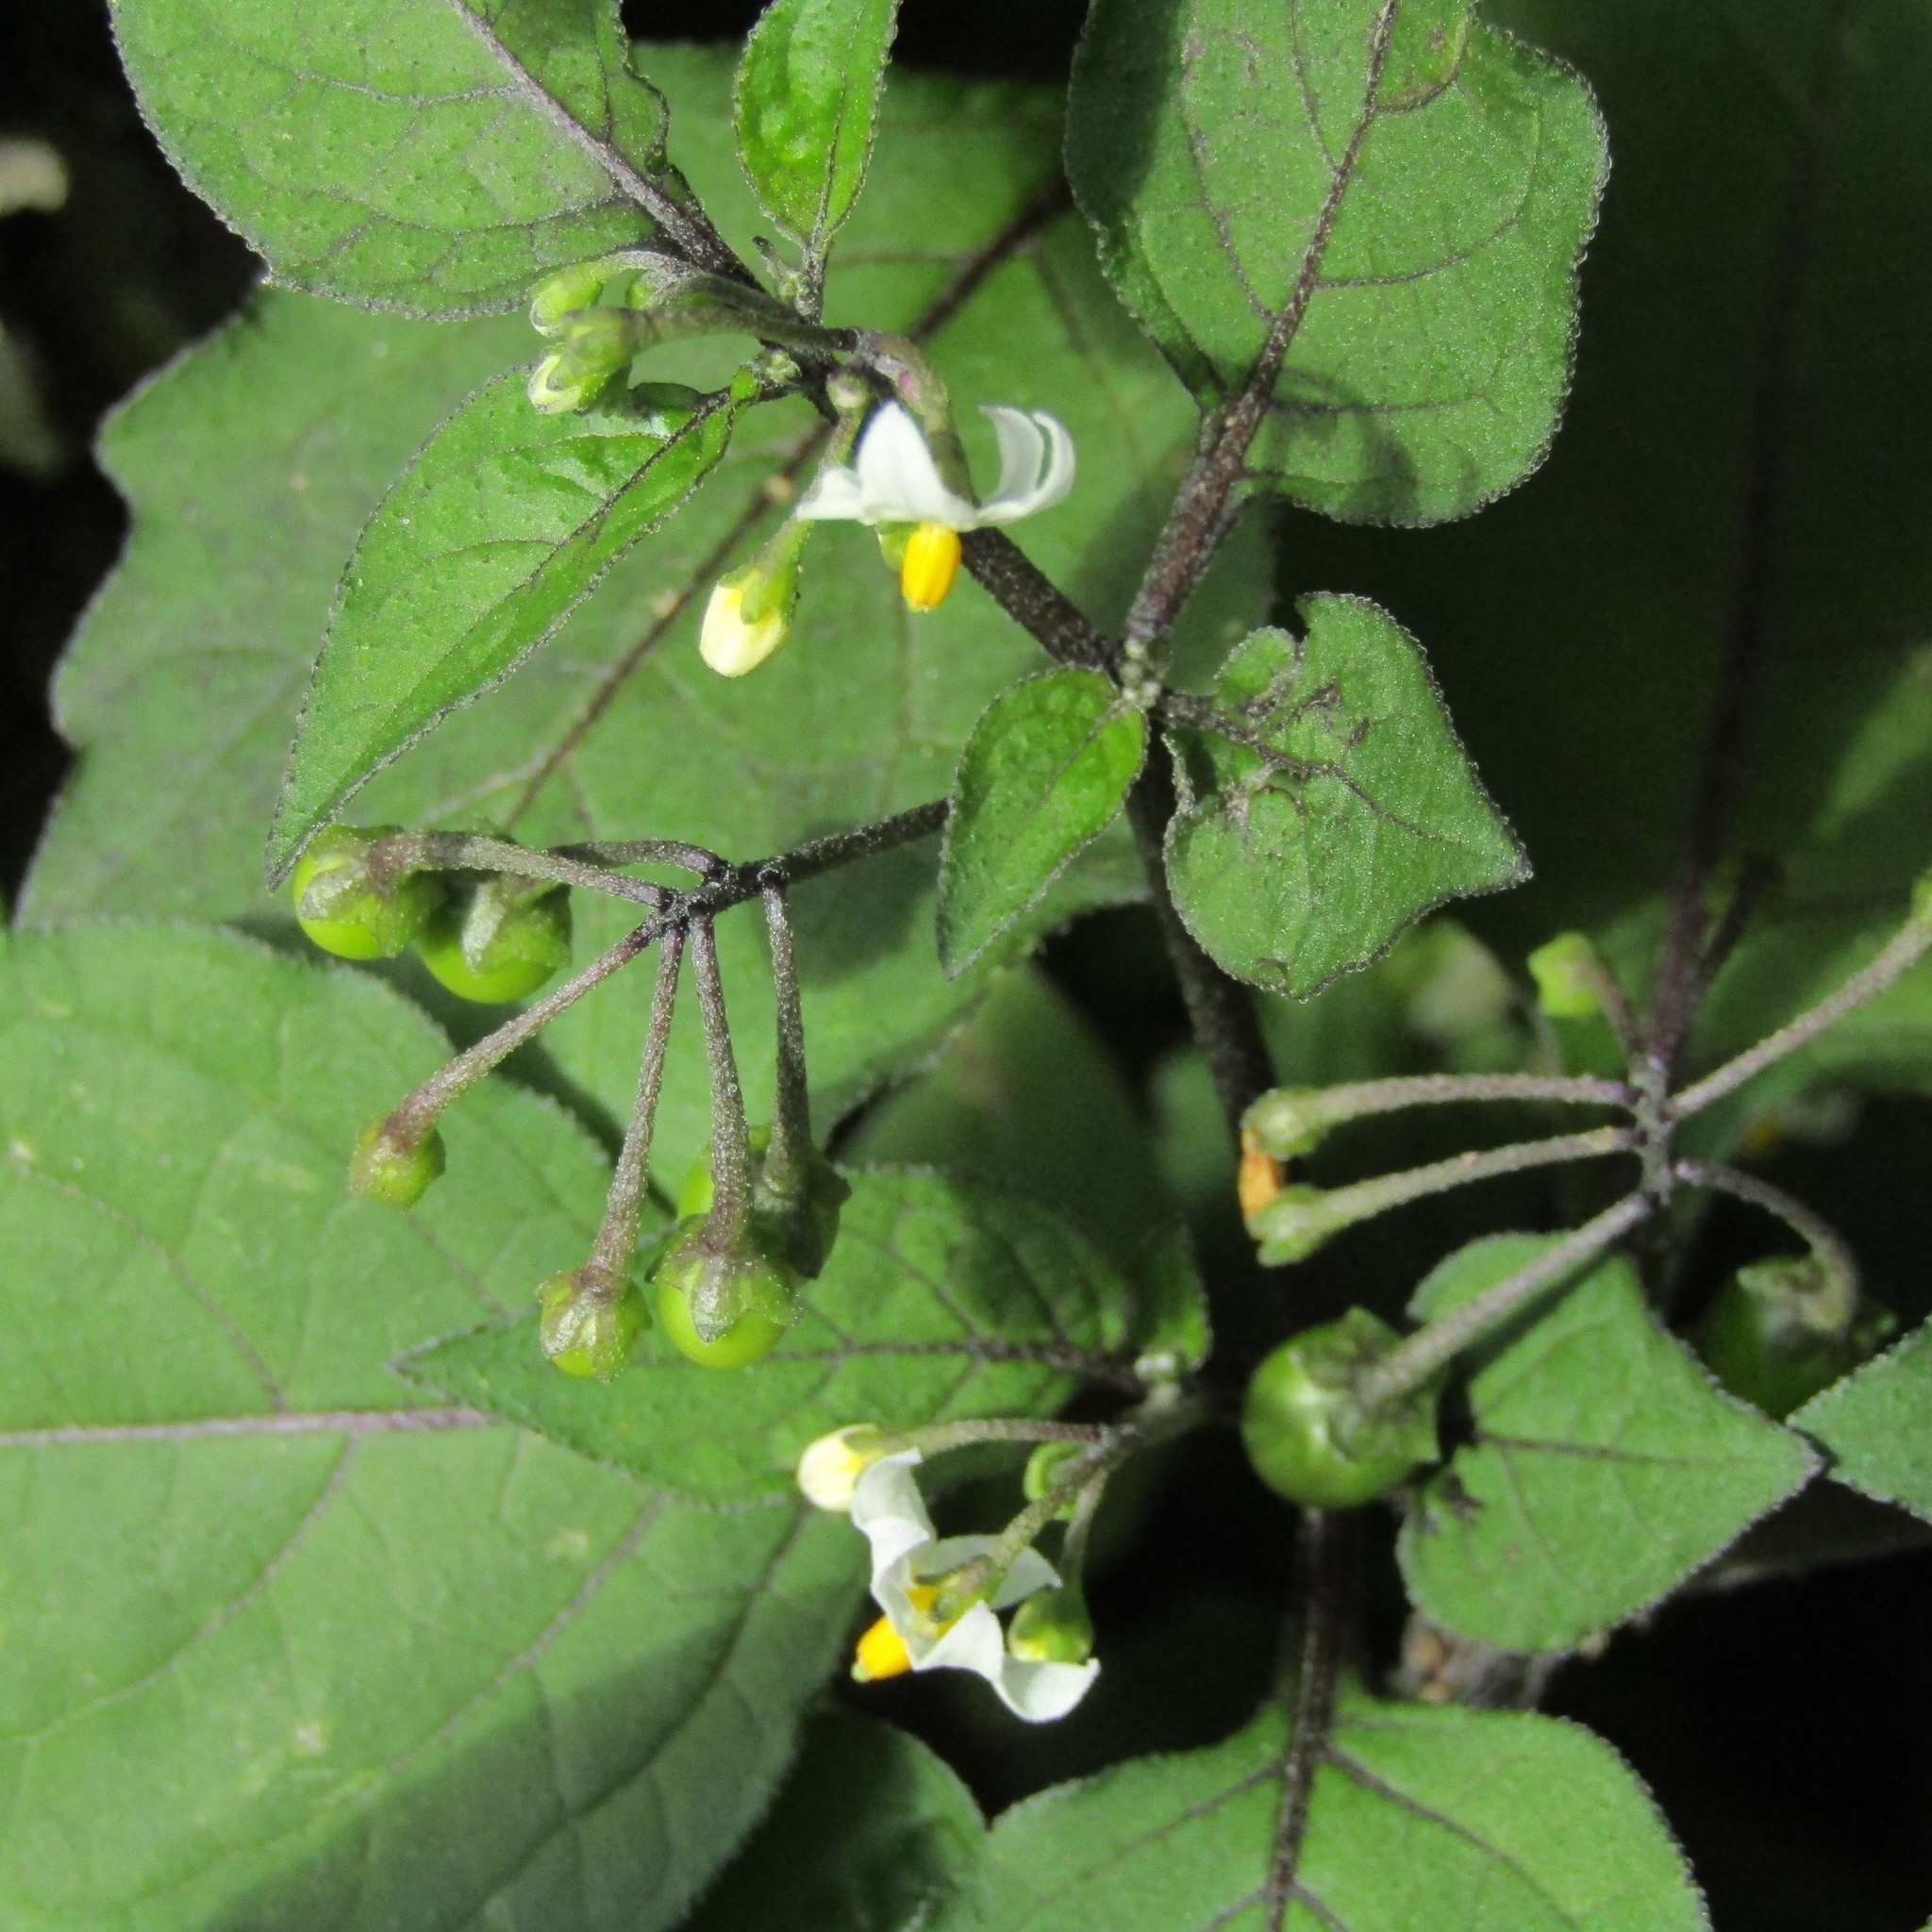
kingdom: Plantae
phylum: Tracheophyta
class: Magnoliopsida
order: Solanales
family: Solanaceae
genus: Solanum
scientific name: Solanum nigrum
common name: Black nightshade
